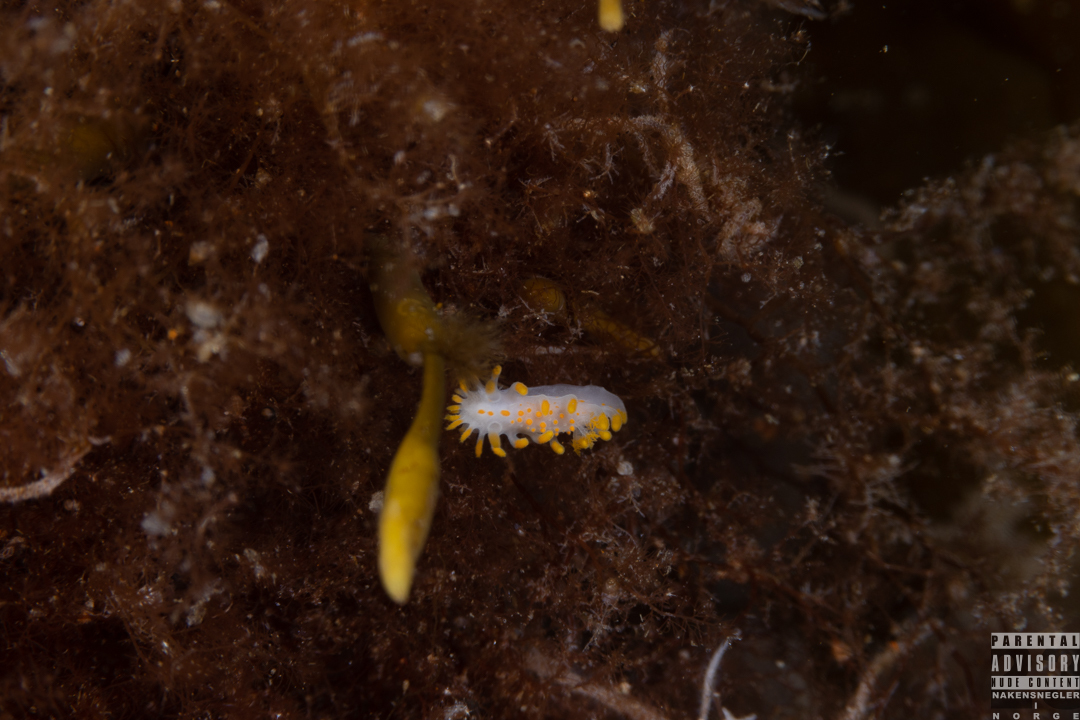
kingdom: Animalia
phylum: Mollusca
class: Gastropoda
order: Nudibranchia
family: Polyceridae
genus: Limacia
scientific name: Limacia clavigera
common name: Orange-clubbed sea slug
